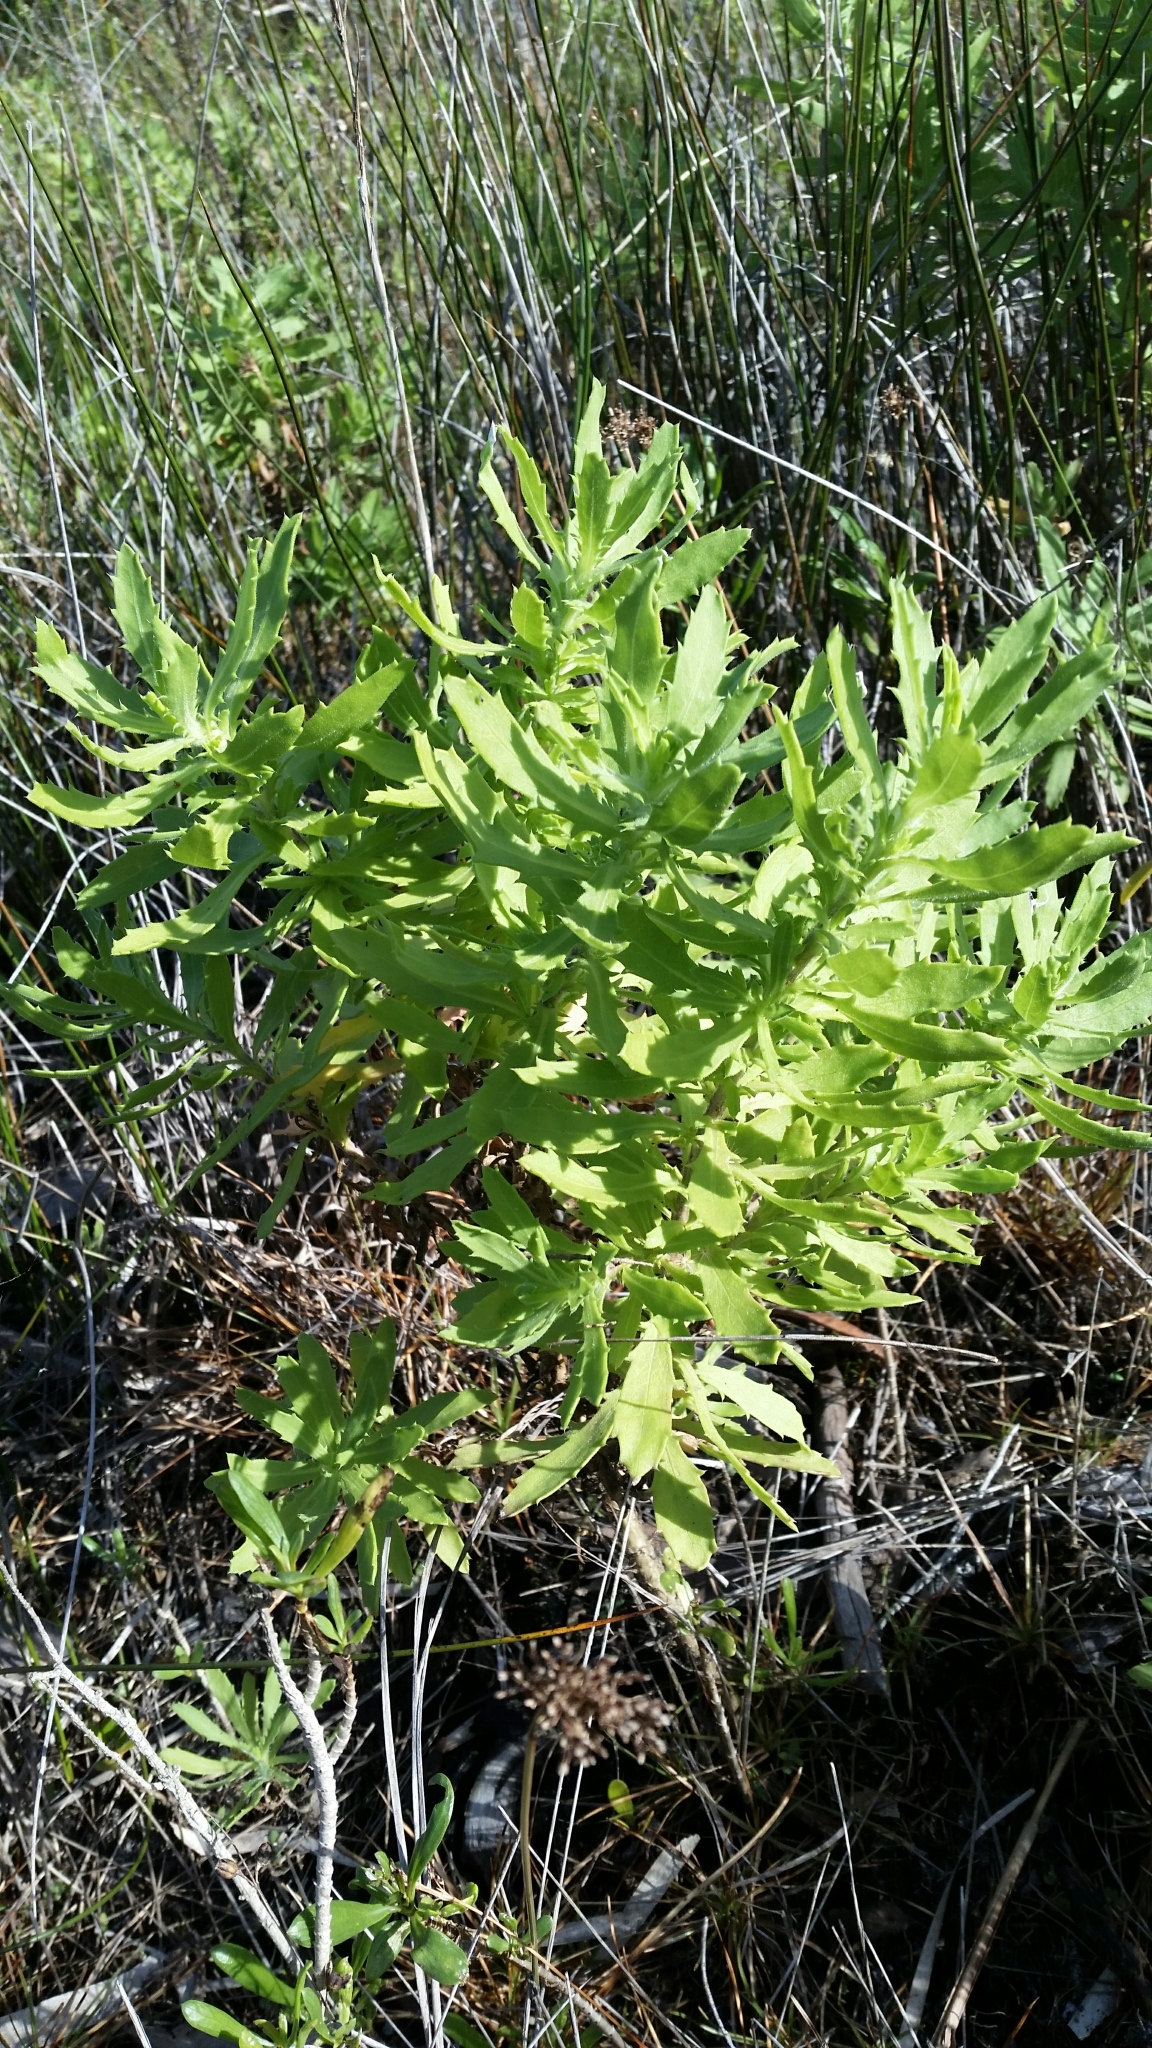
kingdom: Plantae
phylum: Tracheophyta
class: Magnoliopsida
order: Asterales
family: Asteraceae
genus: Rayjacksonia
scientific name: Rayjacksonia phyllocephala
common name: Gulf coast camphor daisy
